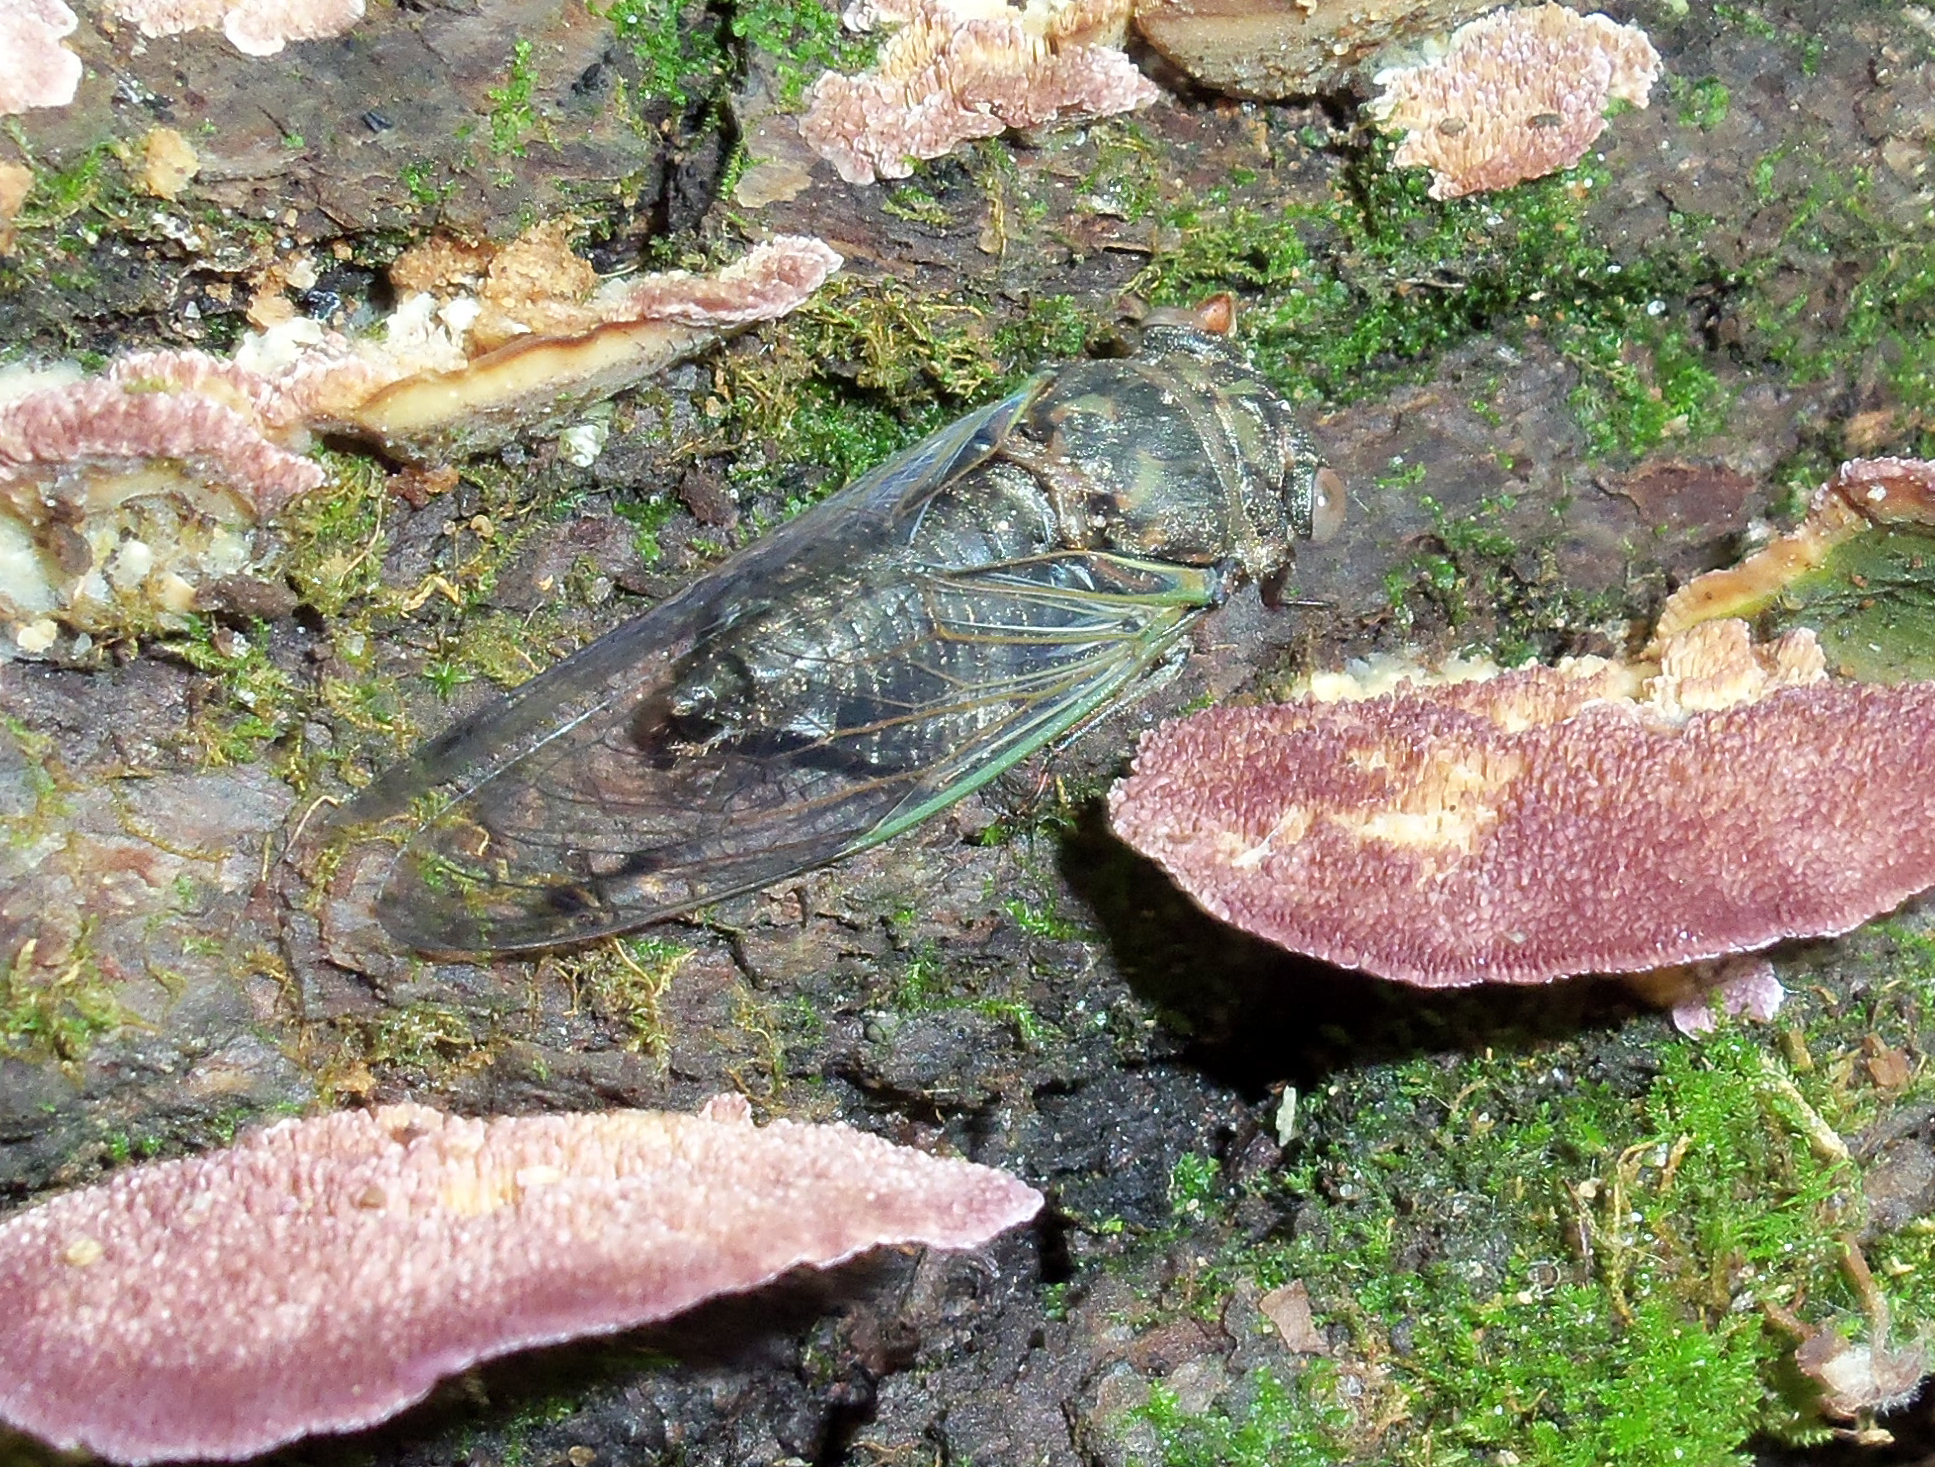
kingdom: Animalia
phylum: Arthropoda
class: Insecta
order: Hemiptera
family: Cicadidae
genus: Neotibicen
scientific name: Neotibicen canicularis
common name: God-day cicada
